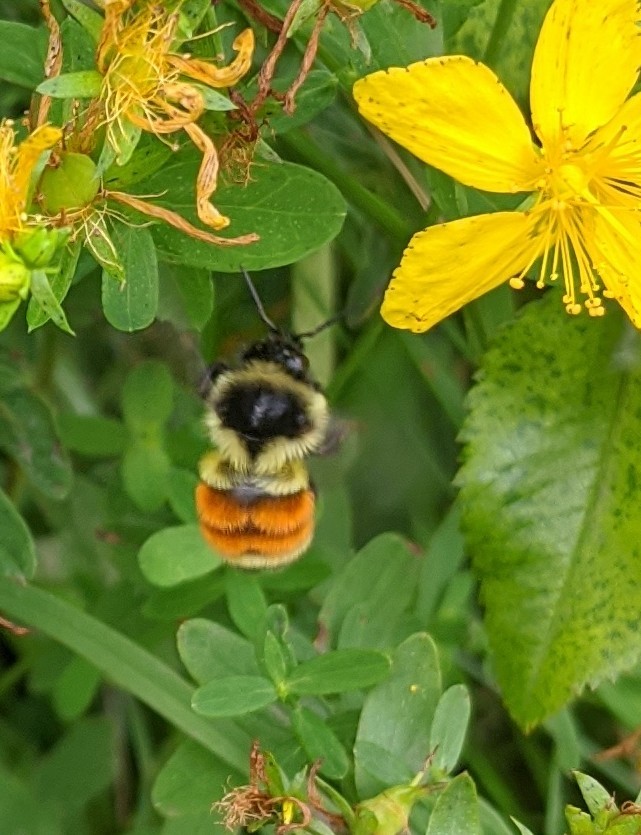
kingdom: Animalia
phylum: Arthropoda
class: Insecta
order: Hymenoptera
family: Apidae
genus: Bombus
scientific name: Bombus ternarius
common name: Tri-colored bumble bee
